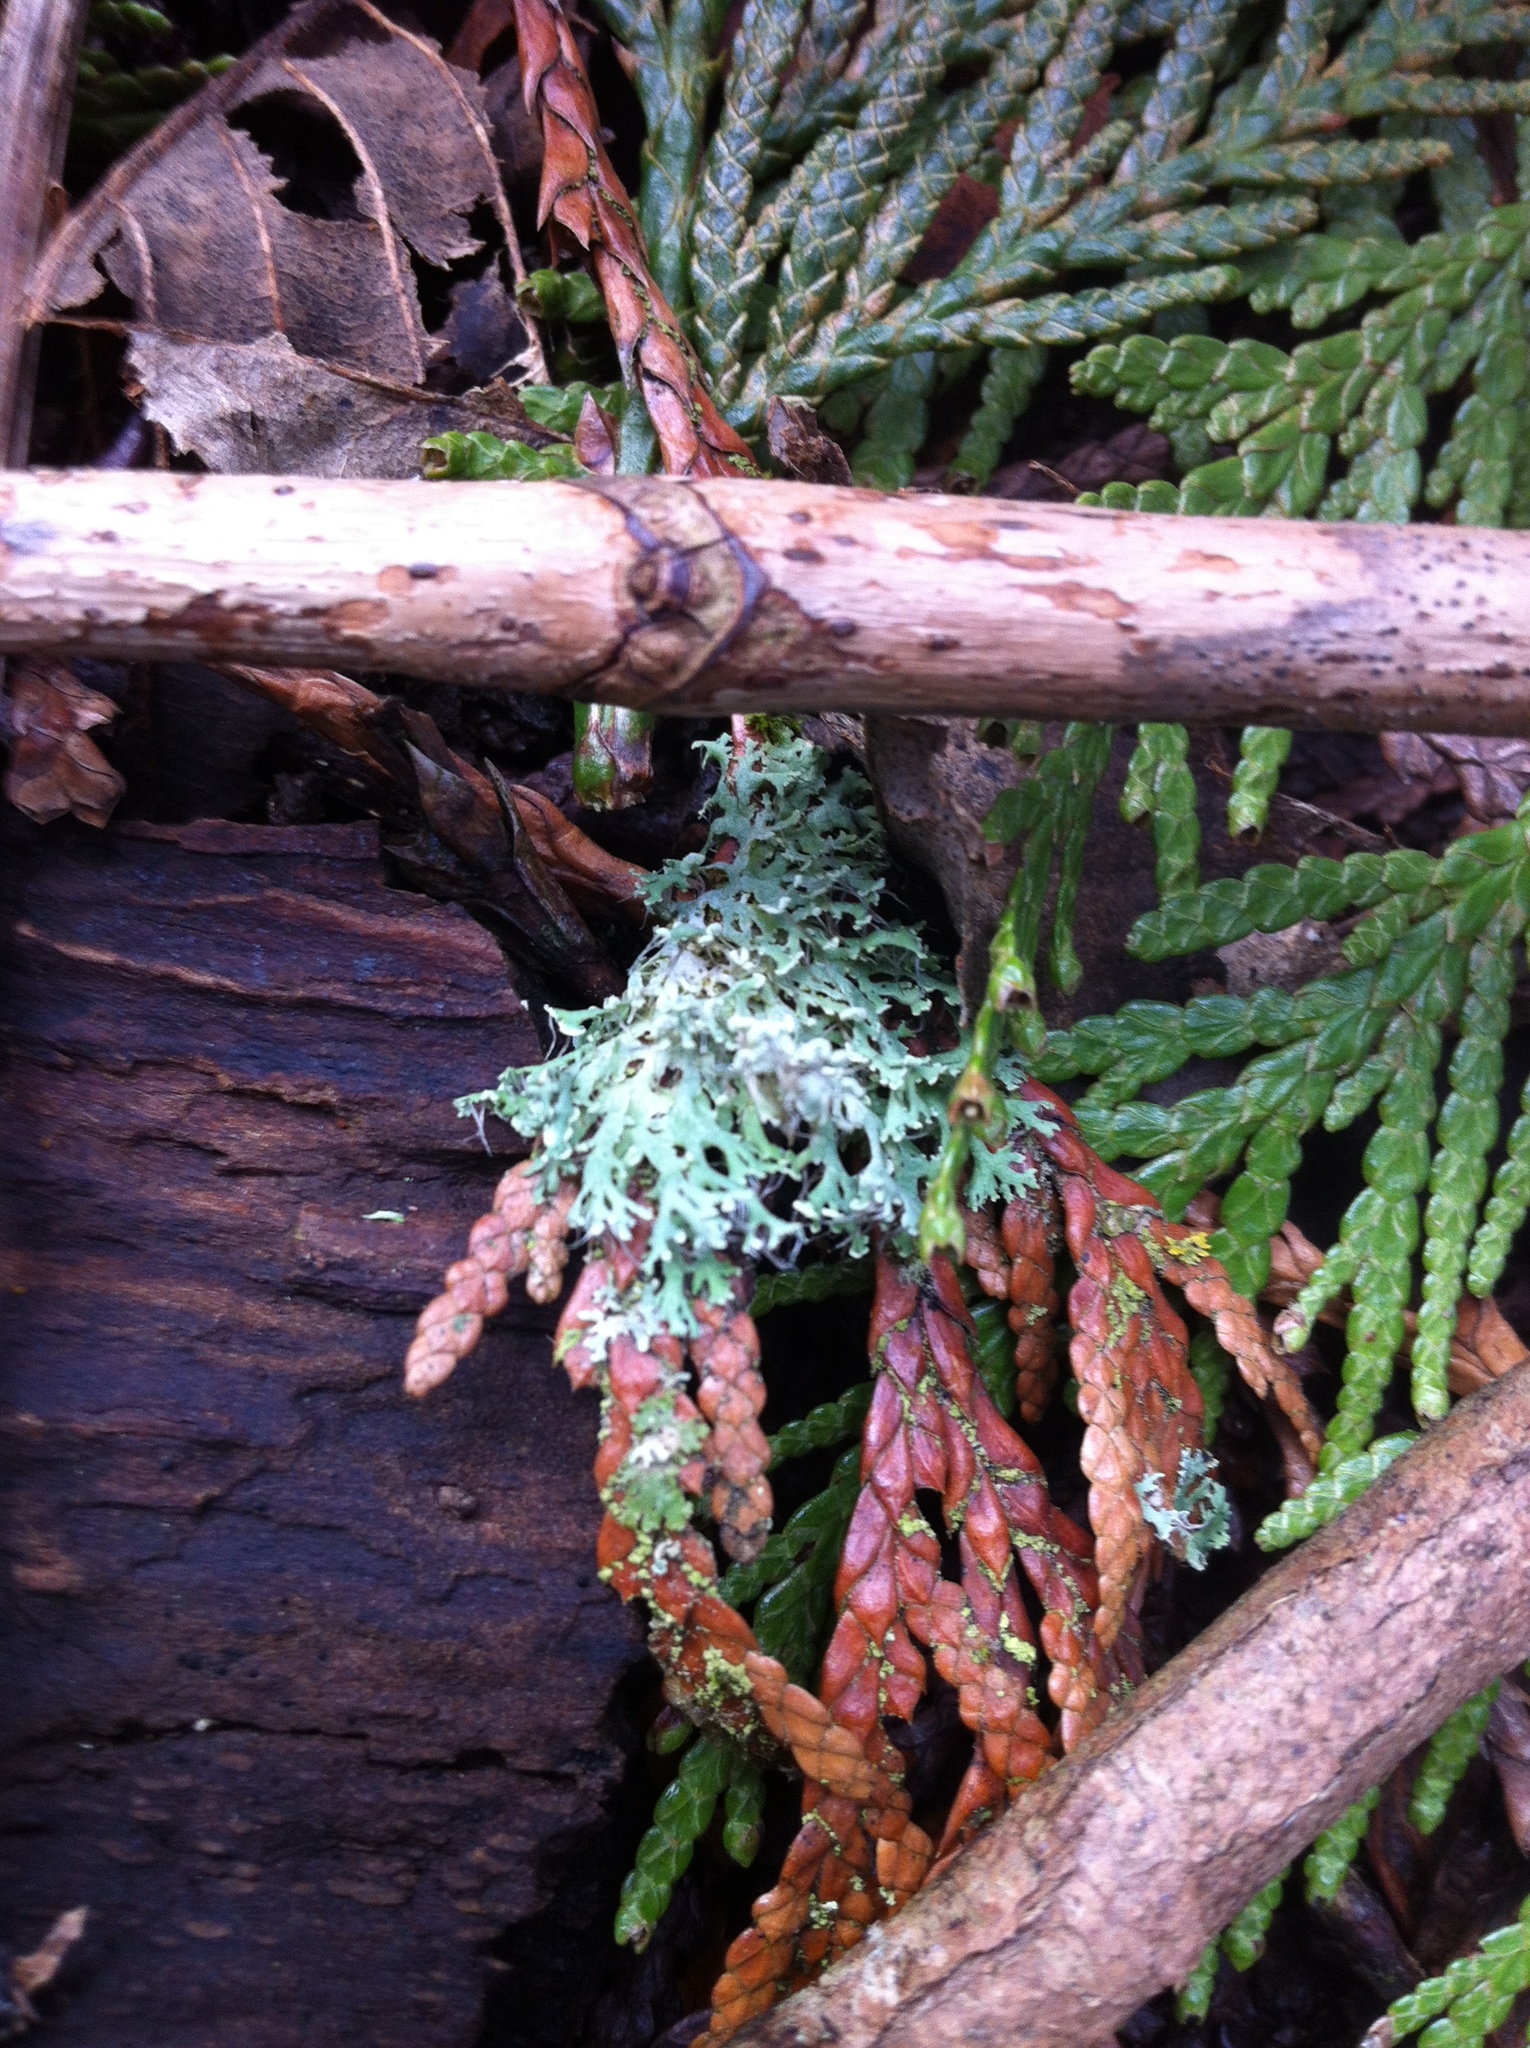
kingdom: Fungi
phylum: Ascomycota
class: Lecanoromycetes
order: Caliciales
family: Physciaceae
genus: Physcia
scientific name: Physcia tenella
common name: Fringed rosette lichen
